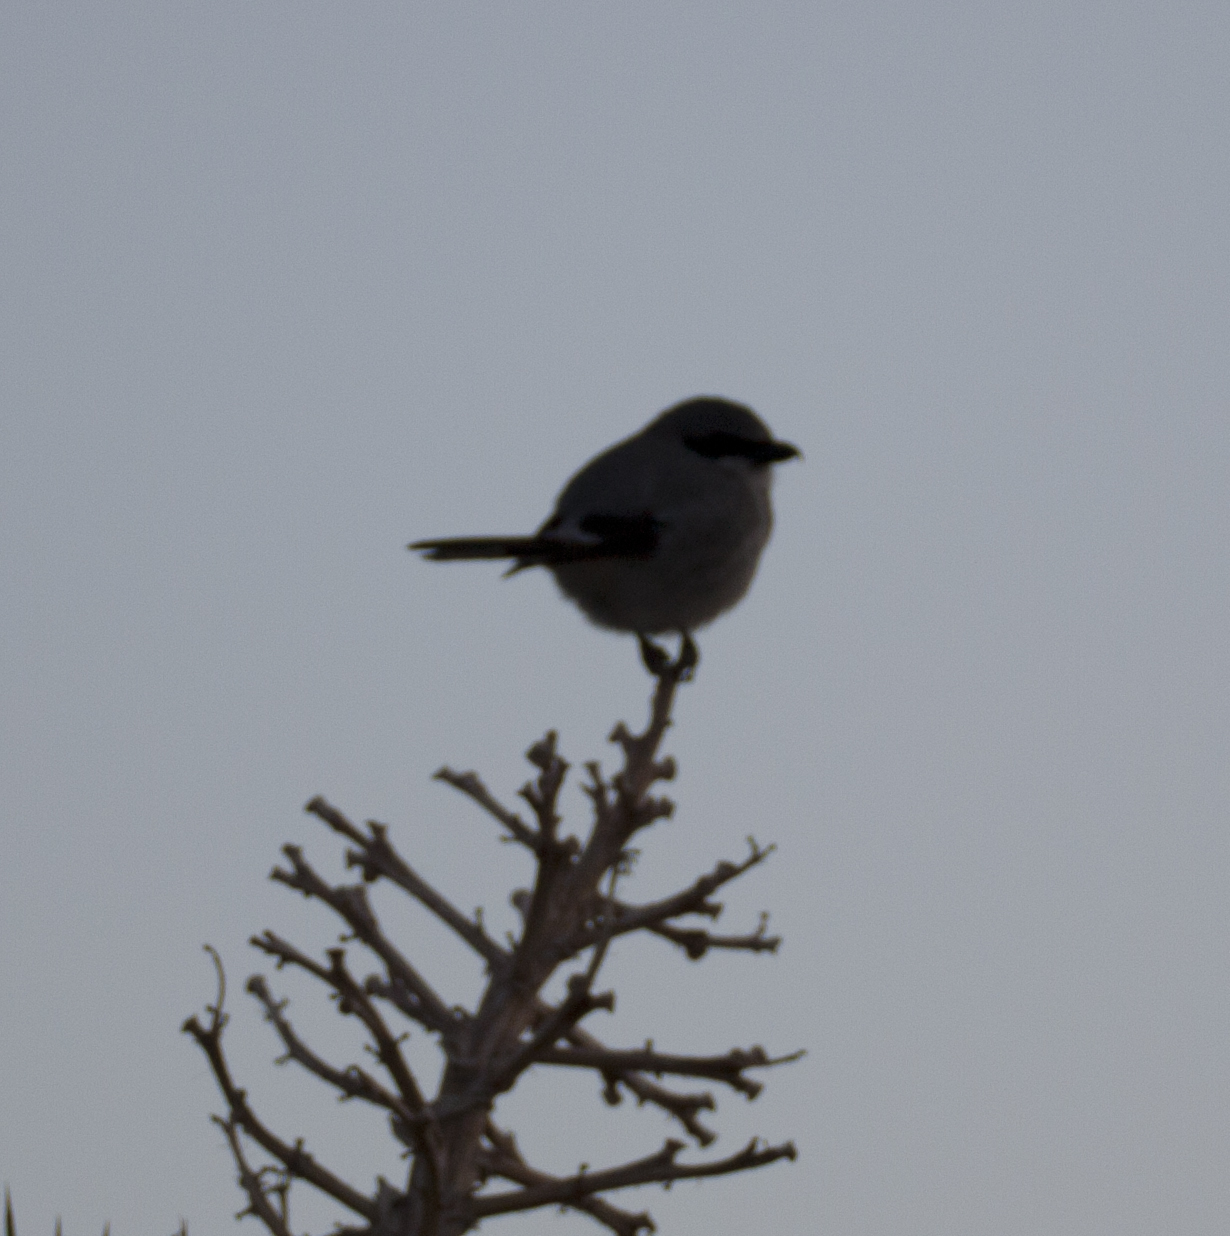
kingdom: Animalia
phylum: Chordata
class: Aves
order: Passeriformes
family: Laniidae
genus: Lanius
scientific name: Lanius ludovicianus
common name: Loggerhead shrike
